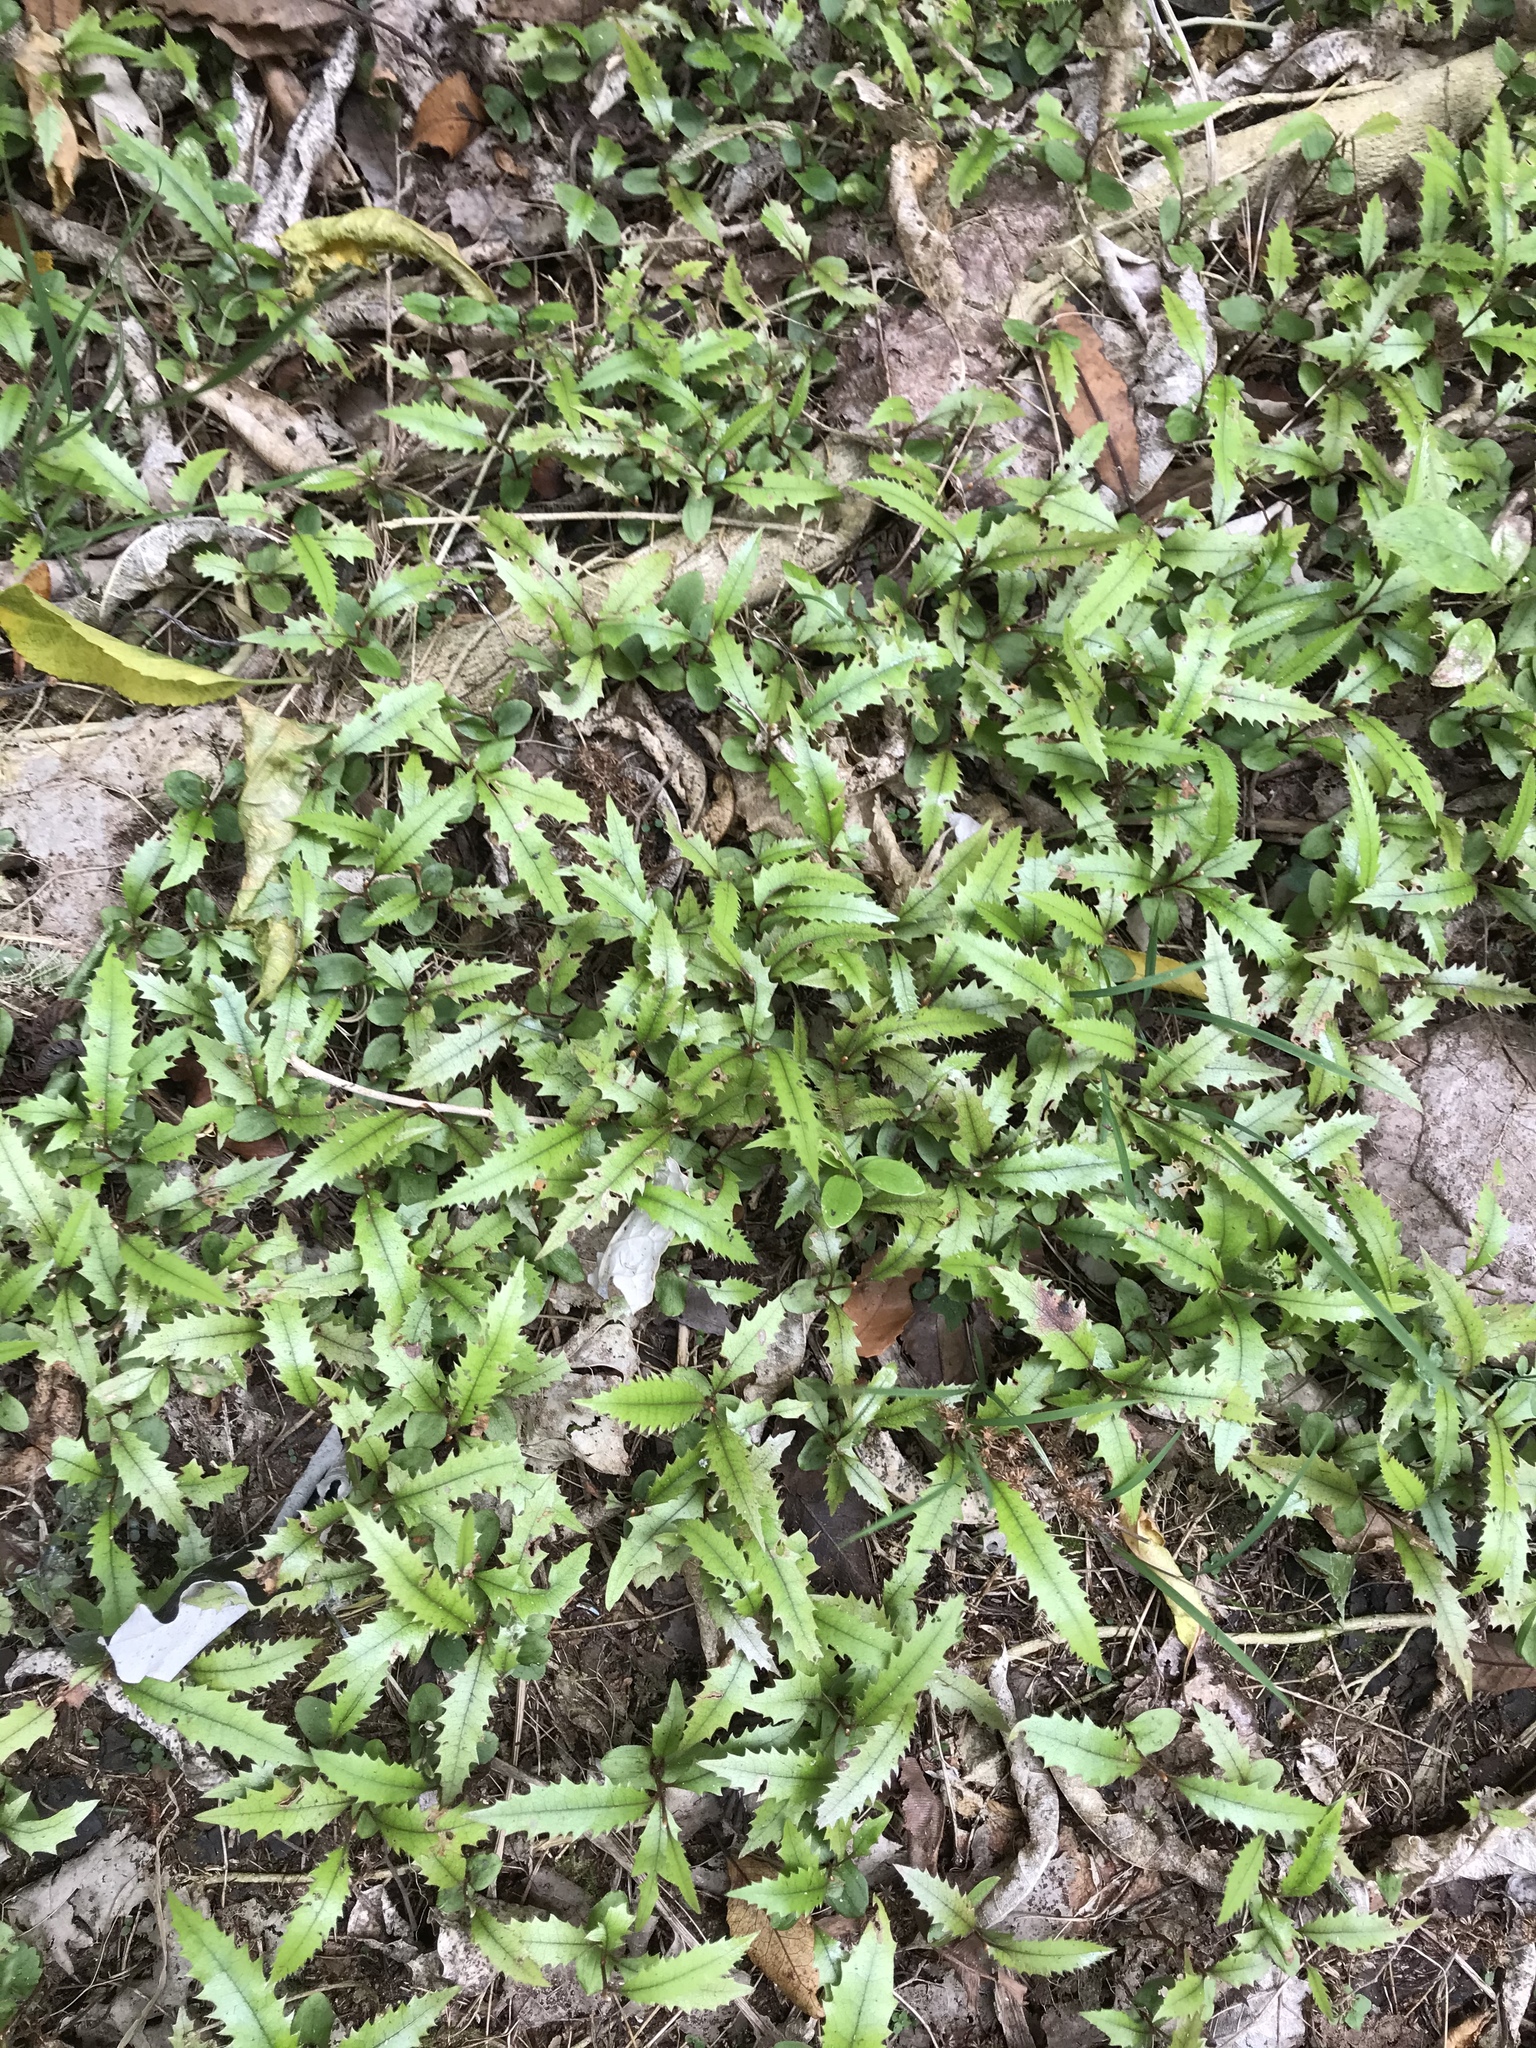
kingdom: Plantae
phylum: Tracheophyta
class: Magnoliopsida
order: Proteales
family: Proteaceae
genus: Knightia
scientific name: Knightia excelsa
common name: New zealand-honeysuckle
